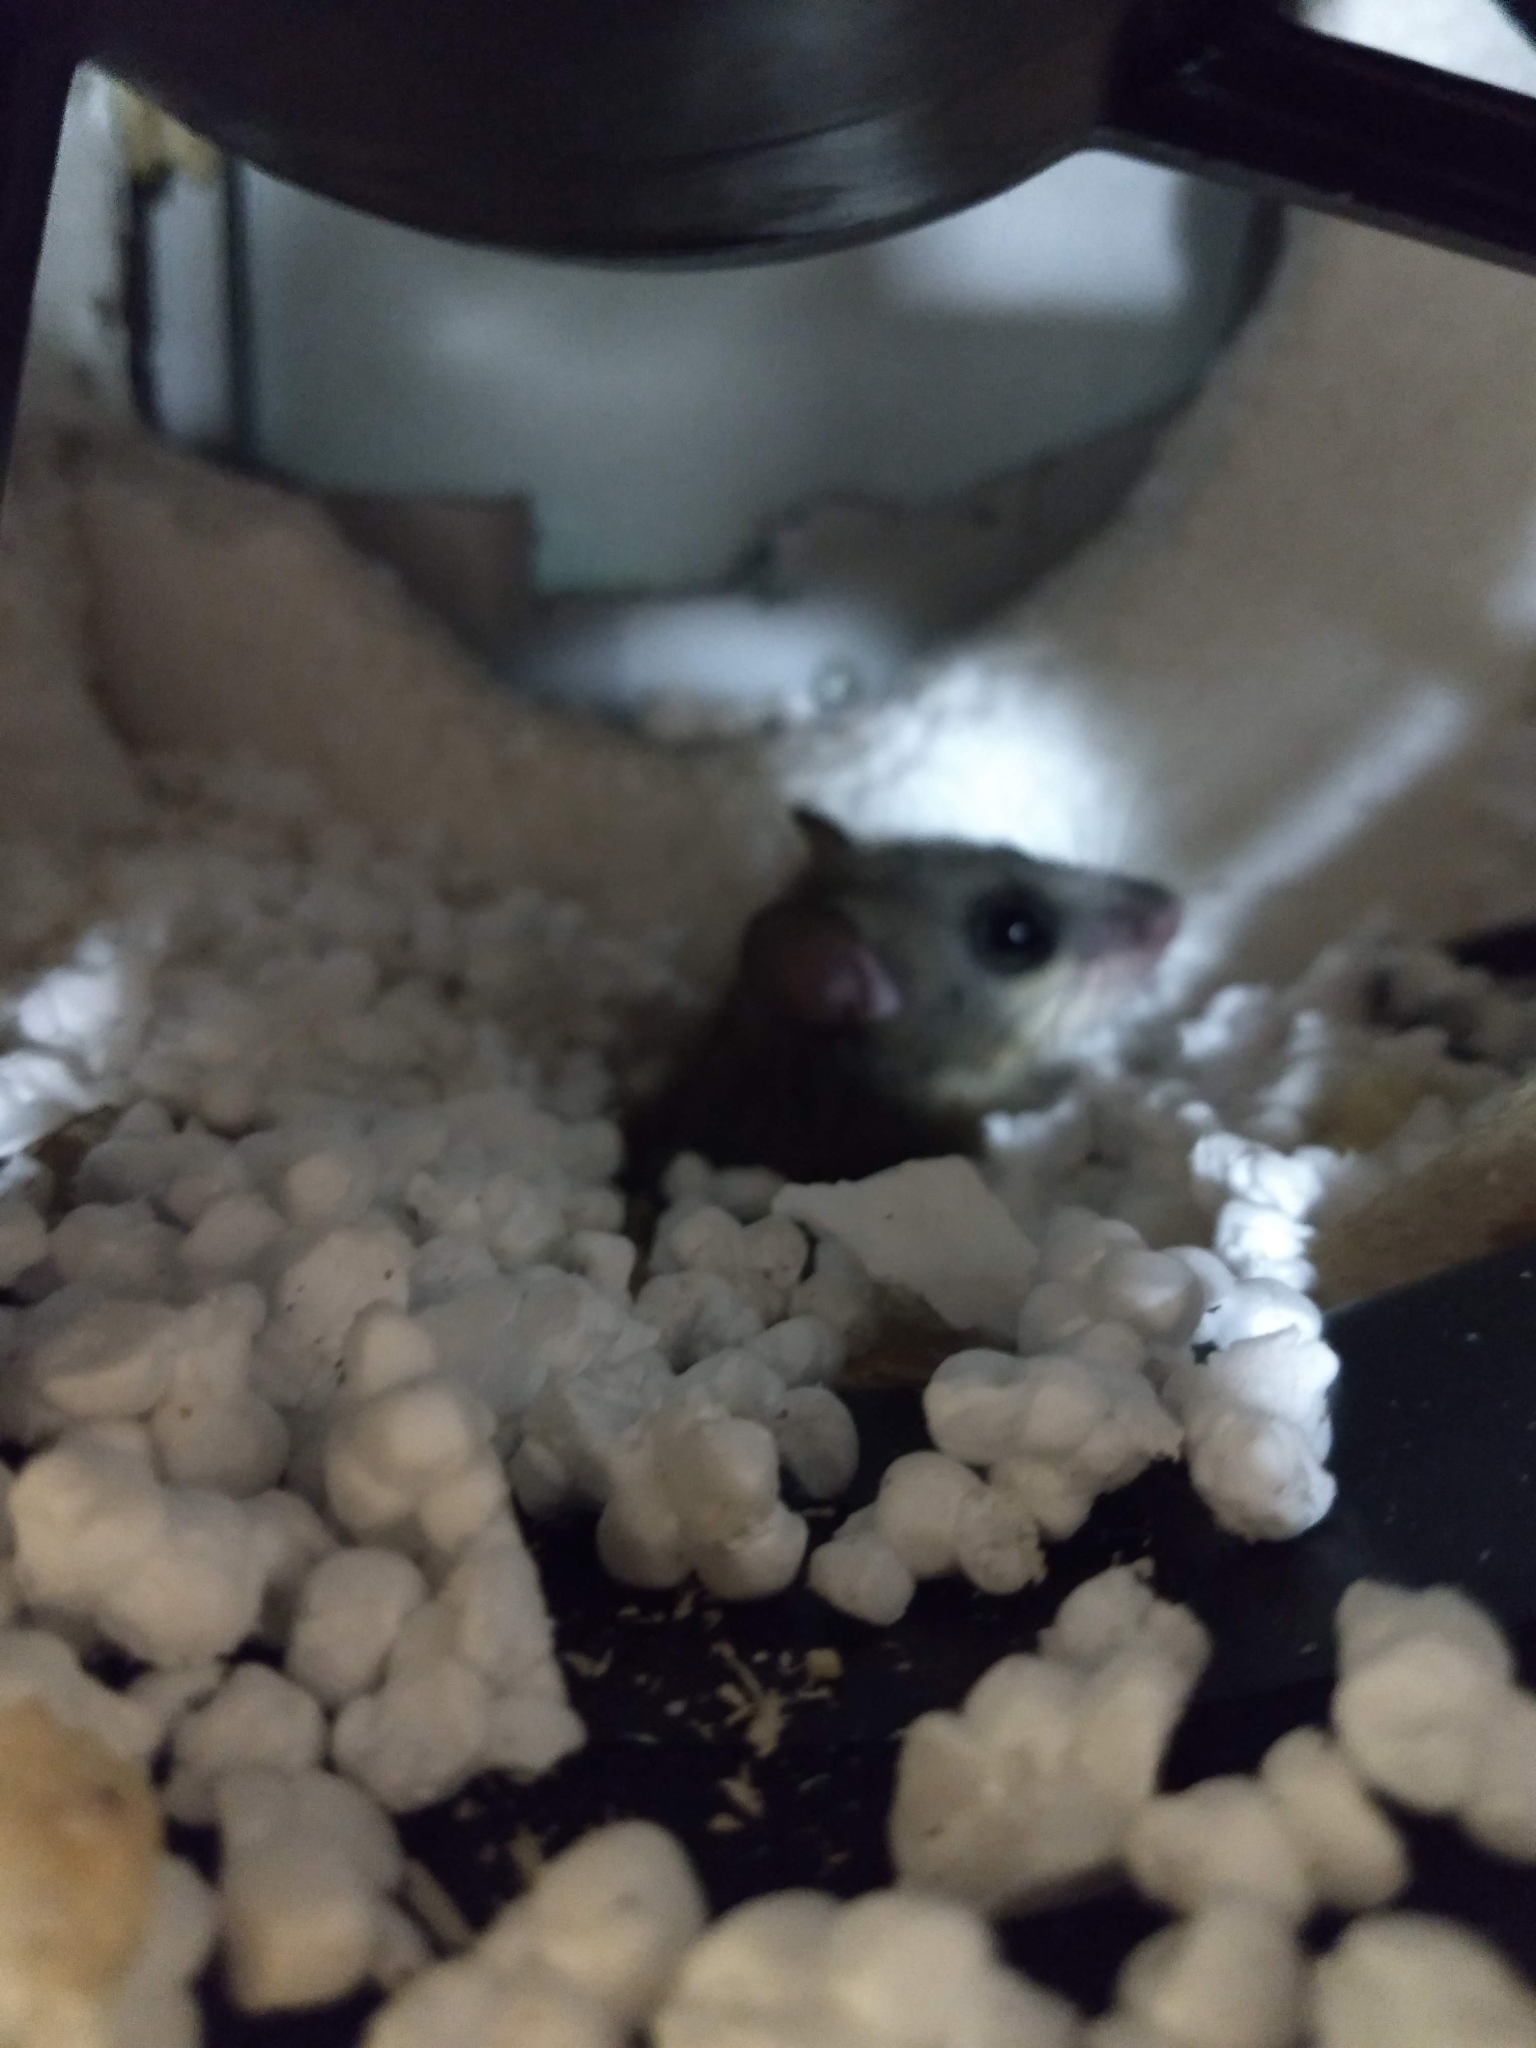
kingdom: Animalia
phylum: Chordata
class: Mammalia
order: Rodentia
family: Gliridae
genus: Glis
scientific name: Glis glis
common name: Fat dormouse
